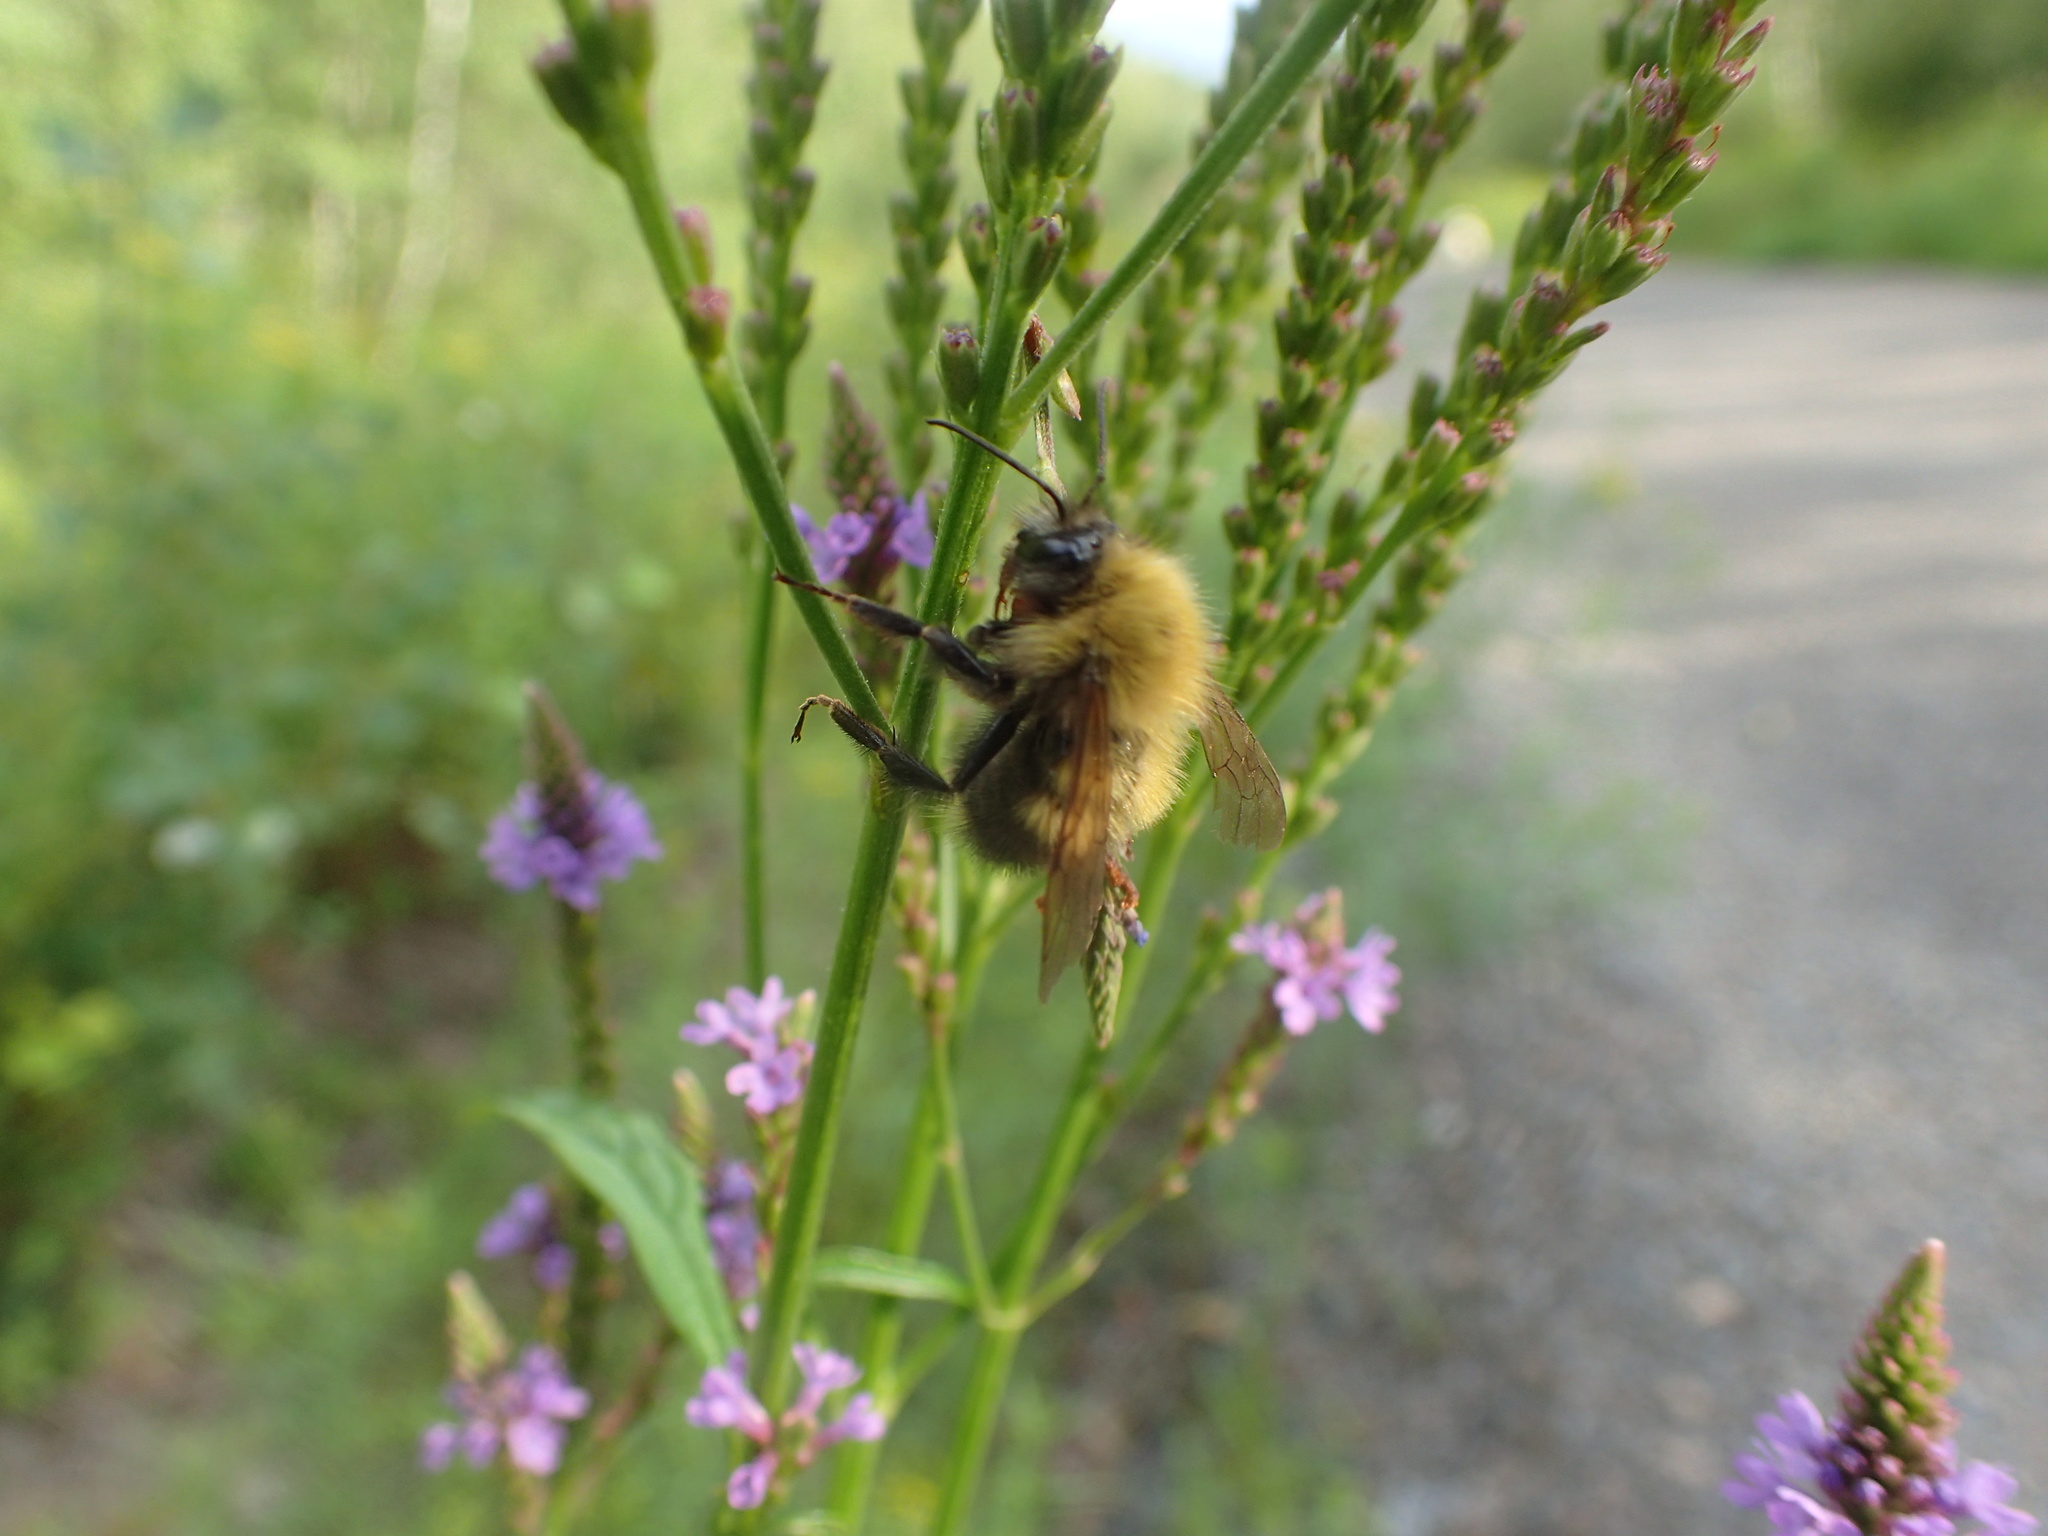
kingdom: Animalia
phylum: Arthropoda
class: Insecta
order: Hymenoptera
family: Apidae
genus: Bombus
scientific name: Bombus perplexus
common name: Confusing bumble bee
